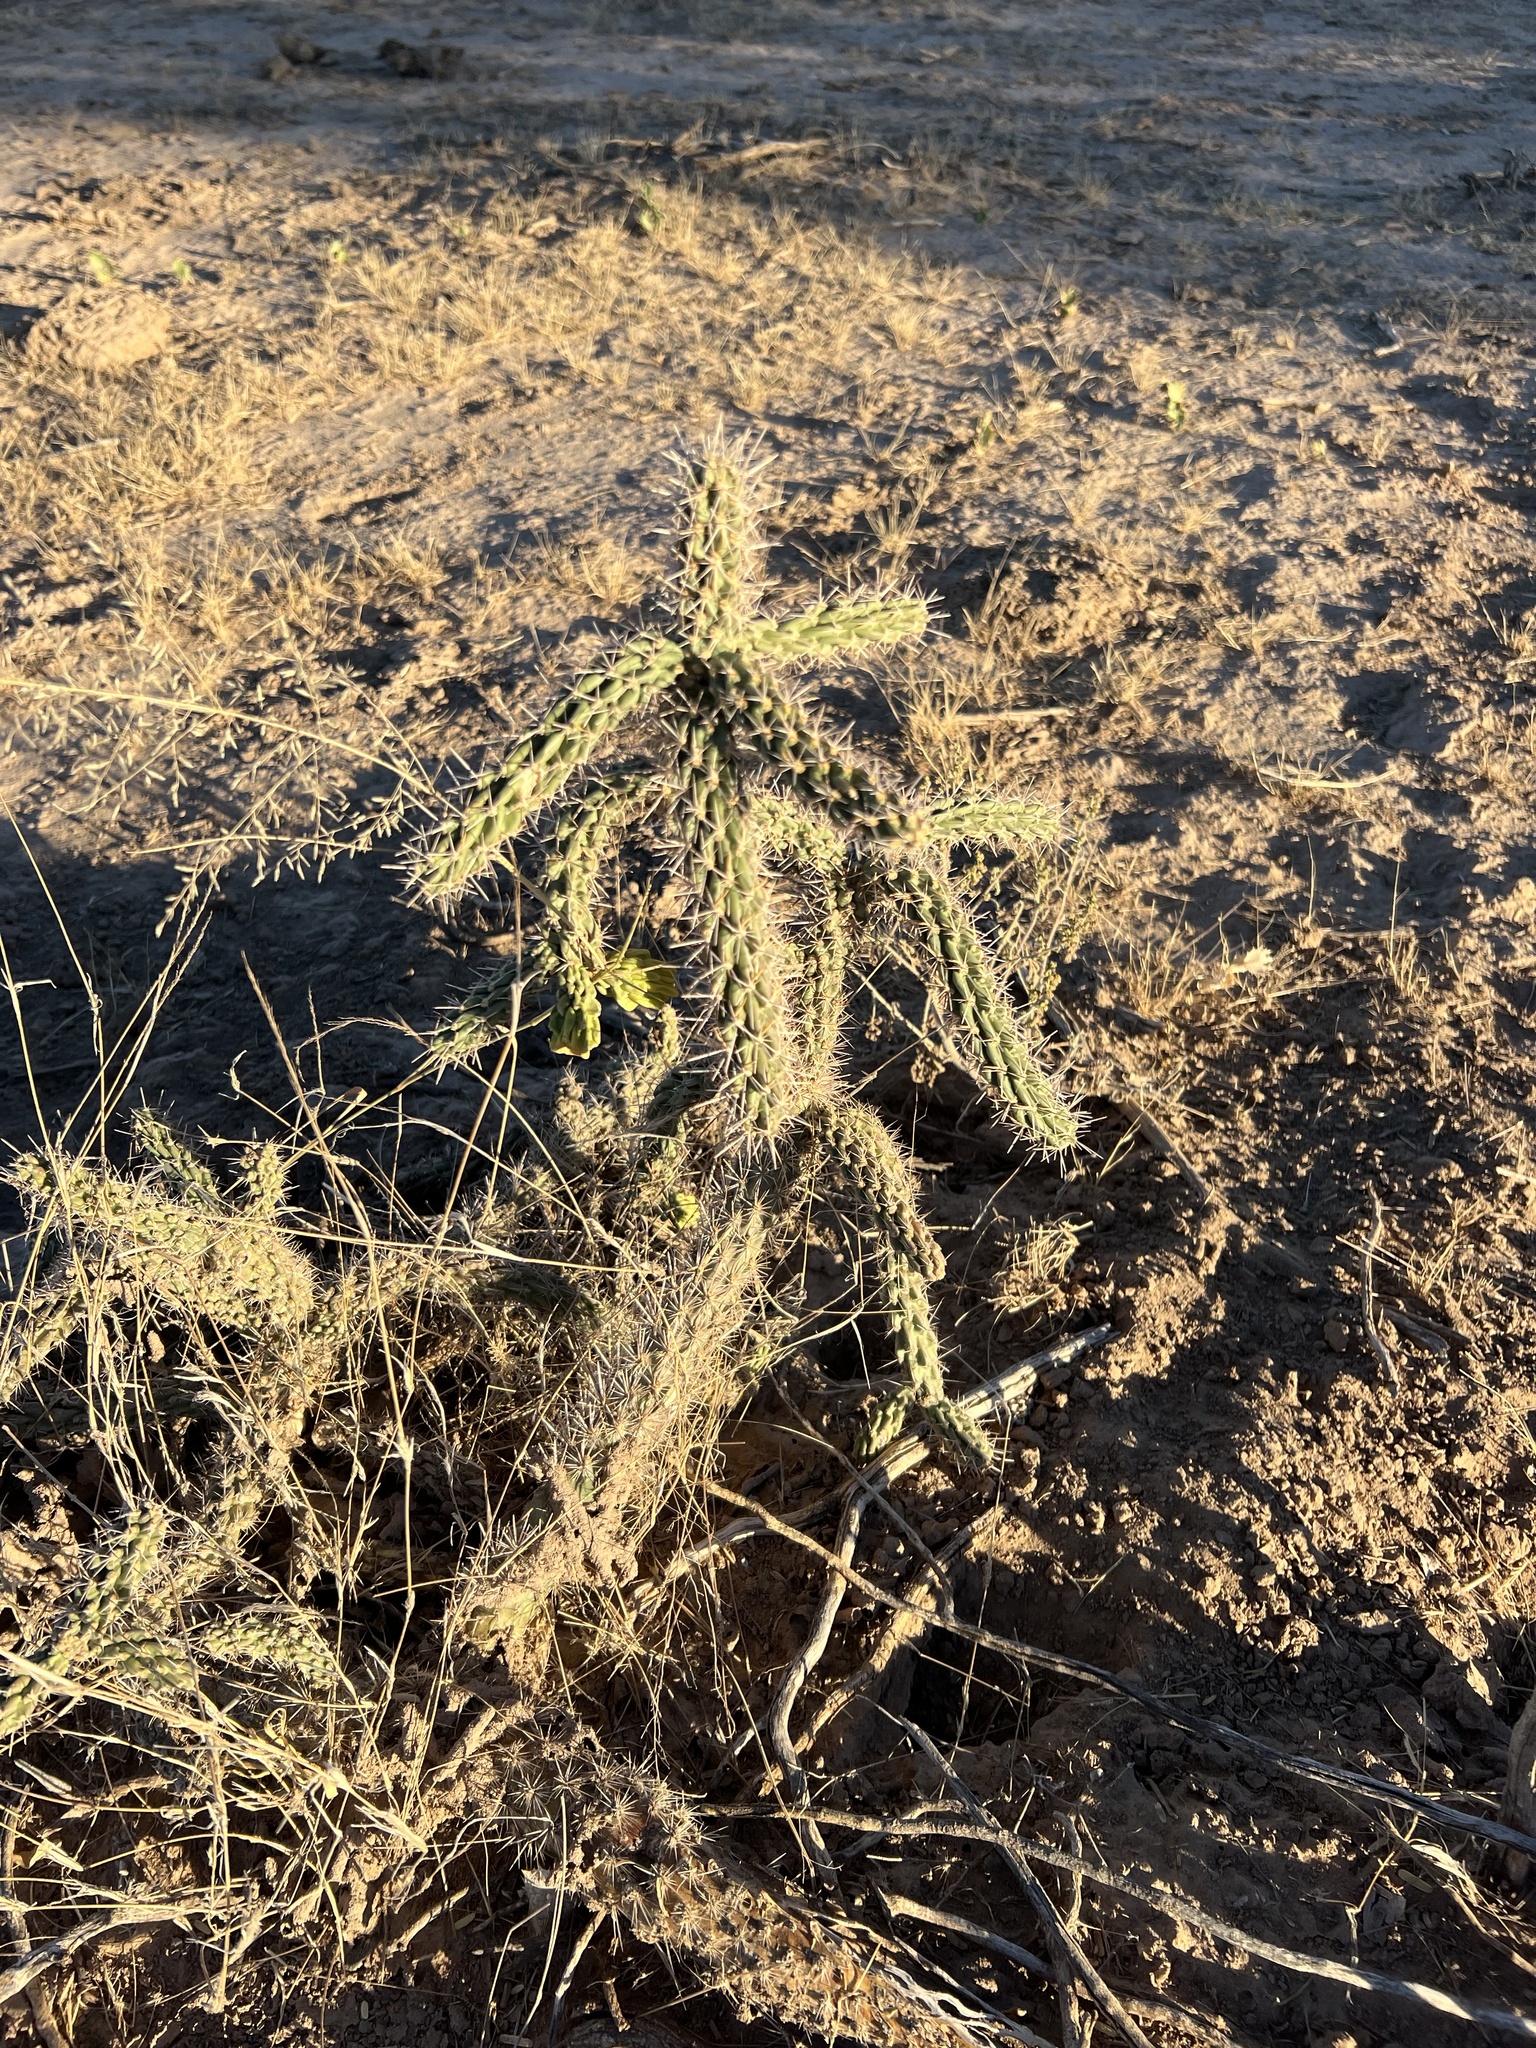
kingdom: Plantae
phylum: Tracheophyta
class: Magnoliopsida
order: Caryophyllales
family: Cactaceae
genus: Cylindropuntia
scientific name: Cylindropuntia imbricata
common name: Candelabrum cactus
